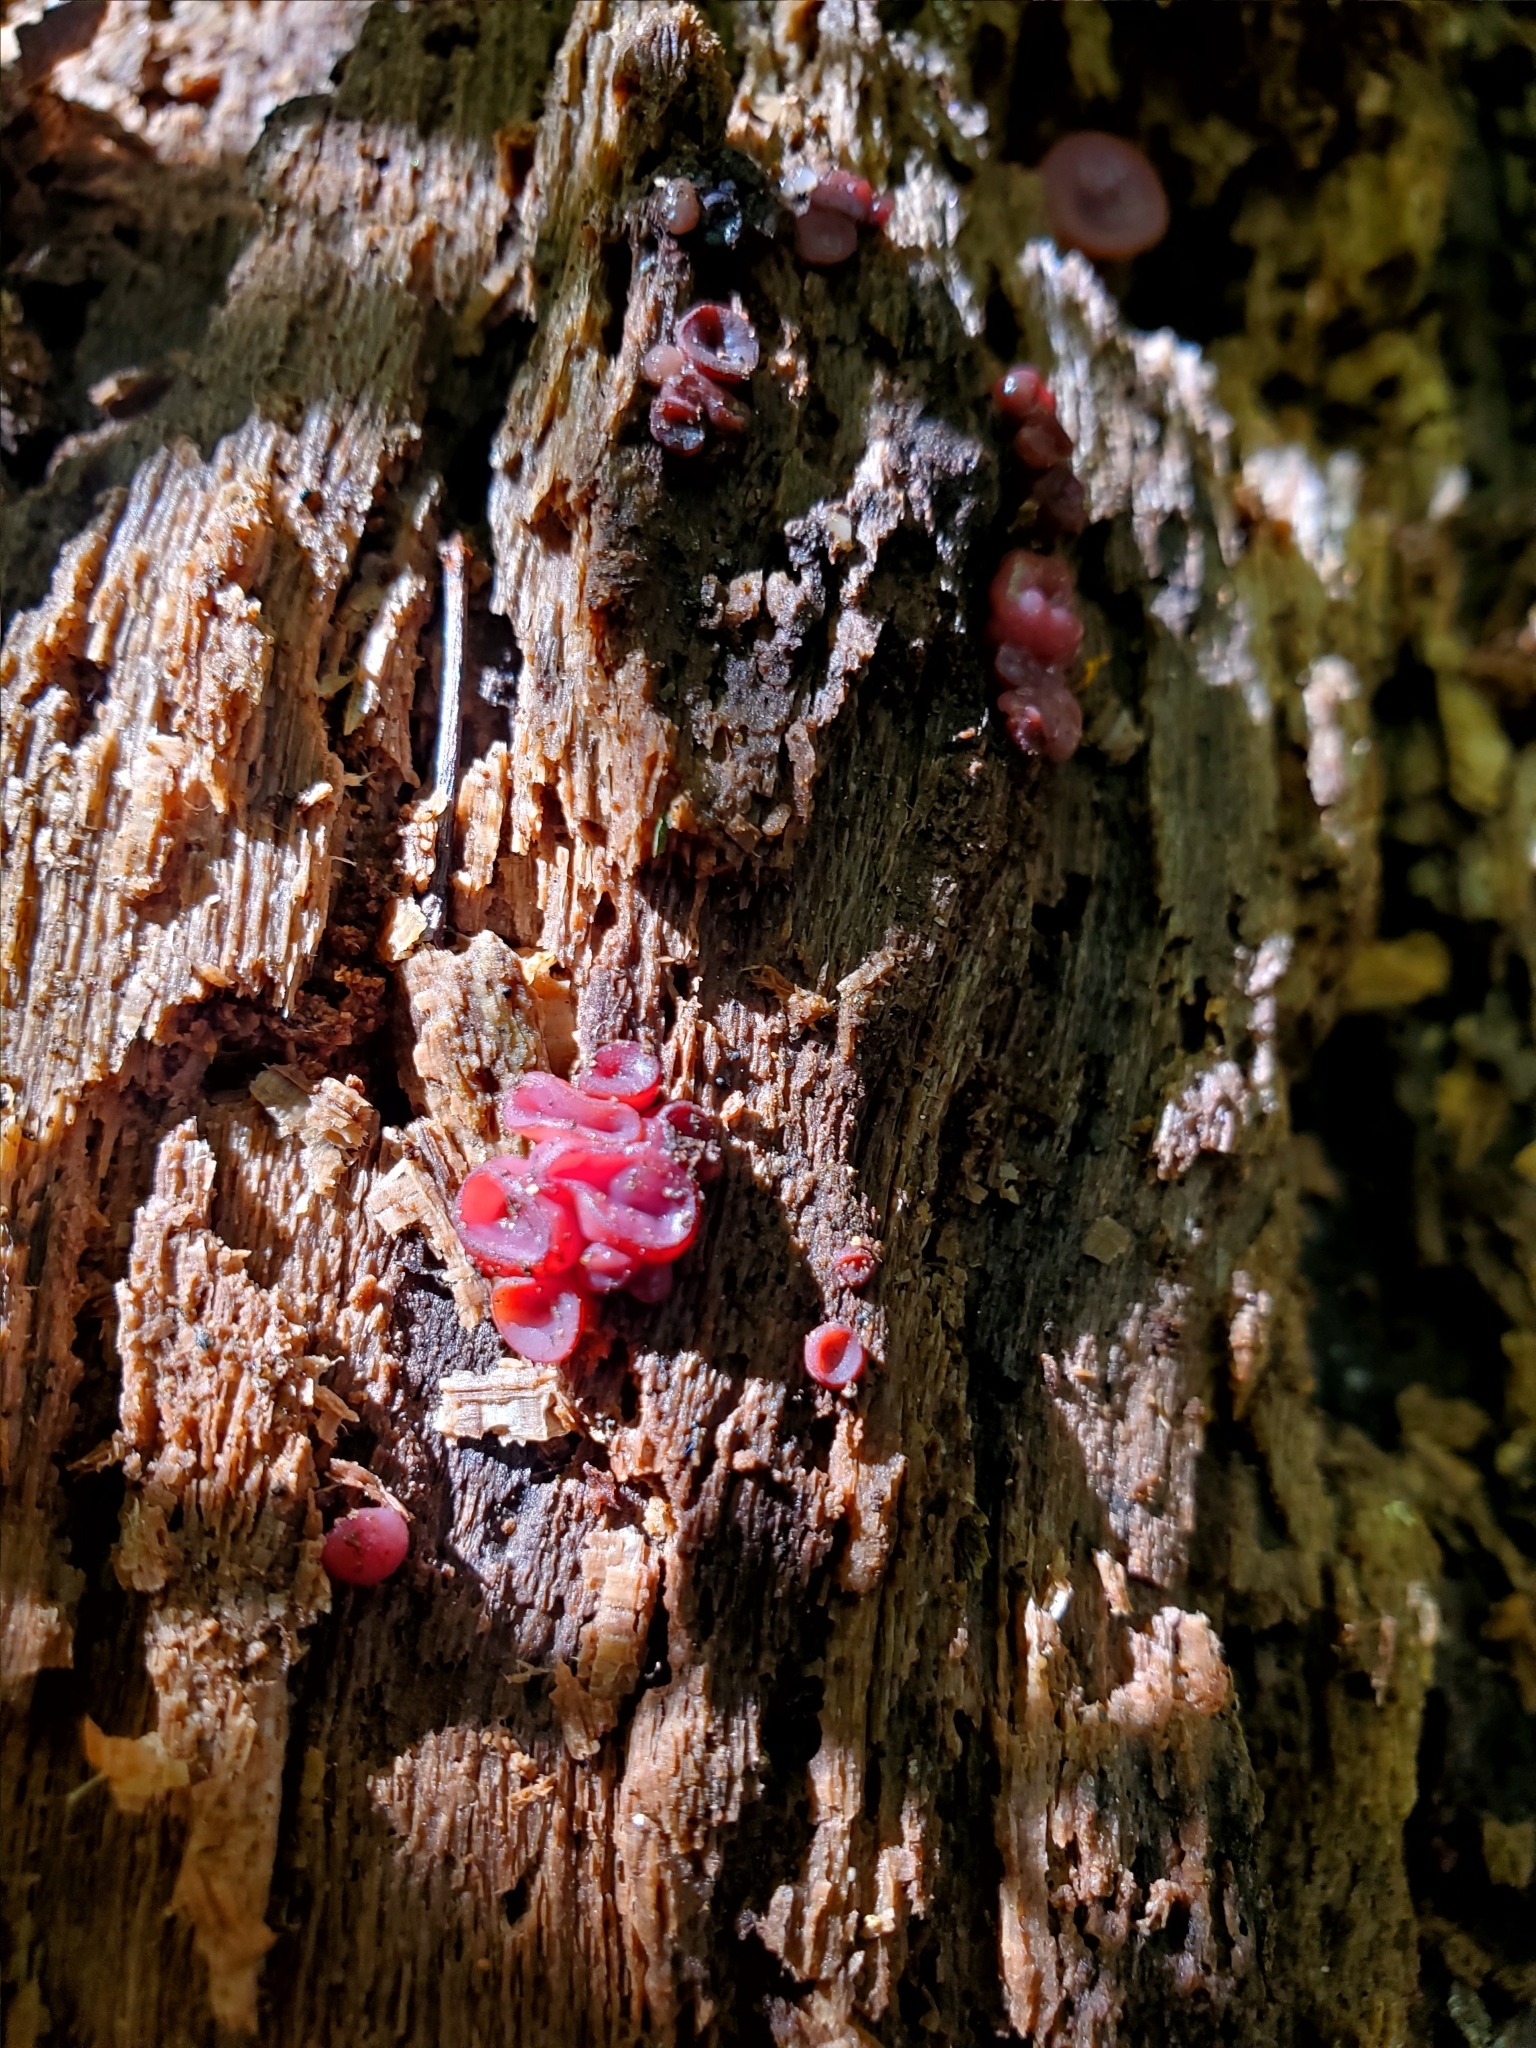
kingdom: Fungi
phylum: Ascomycota
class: Leotiomycetes
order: Helotiales
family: Gelatinodiscaceae
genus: Ascocoryne
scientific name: Ascocoryne sarcoides
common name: Purple jellydisc
